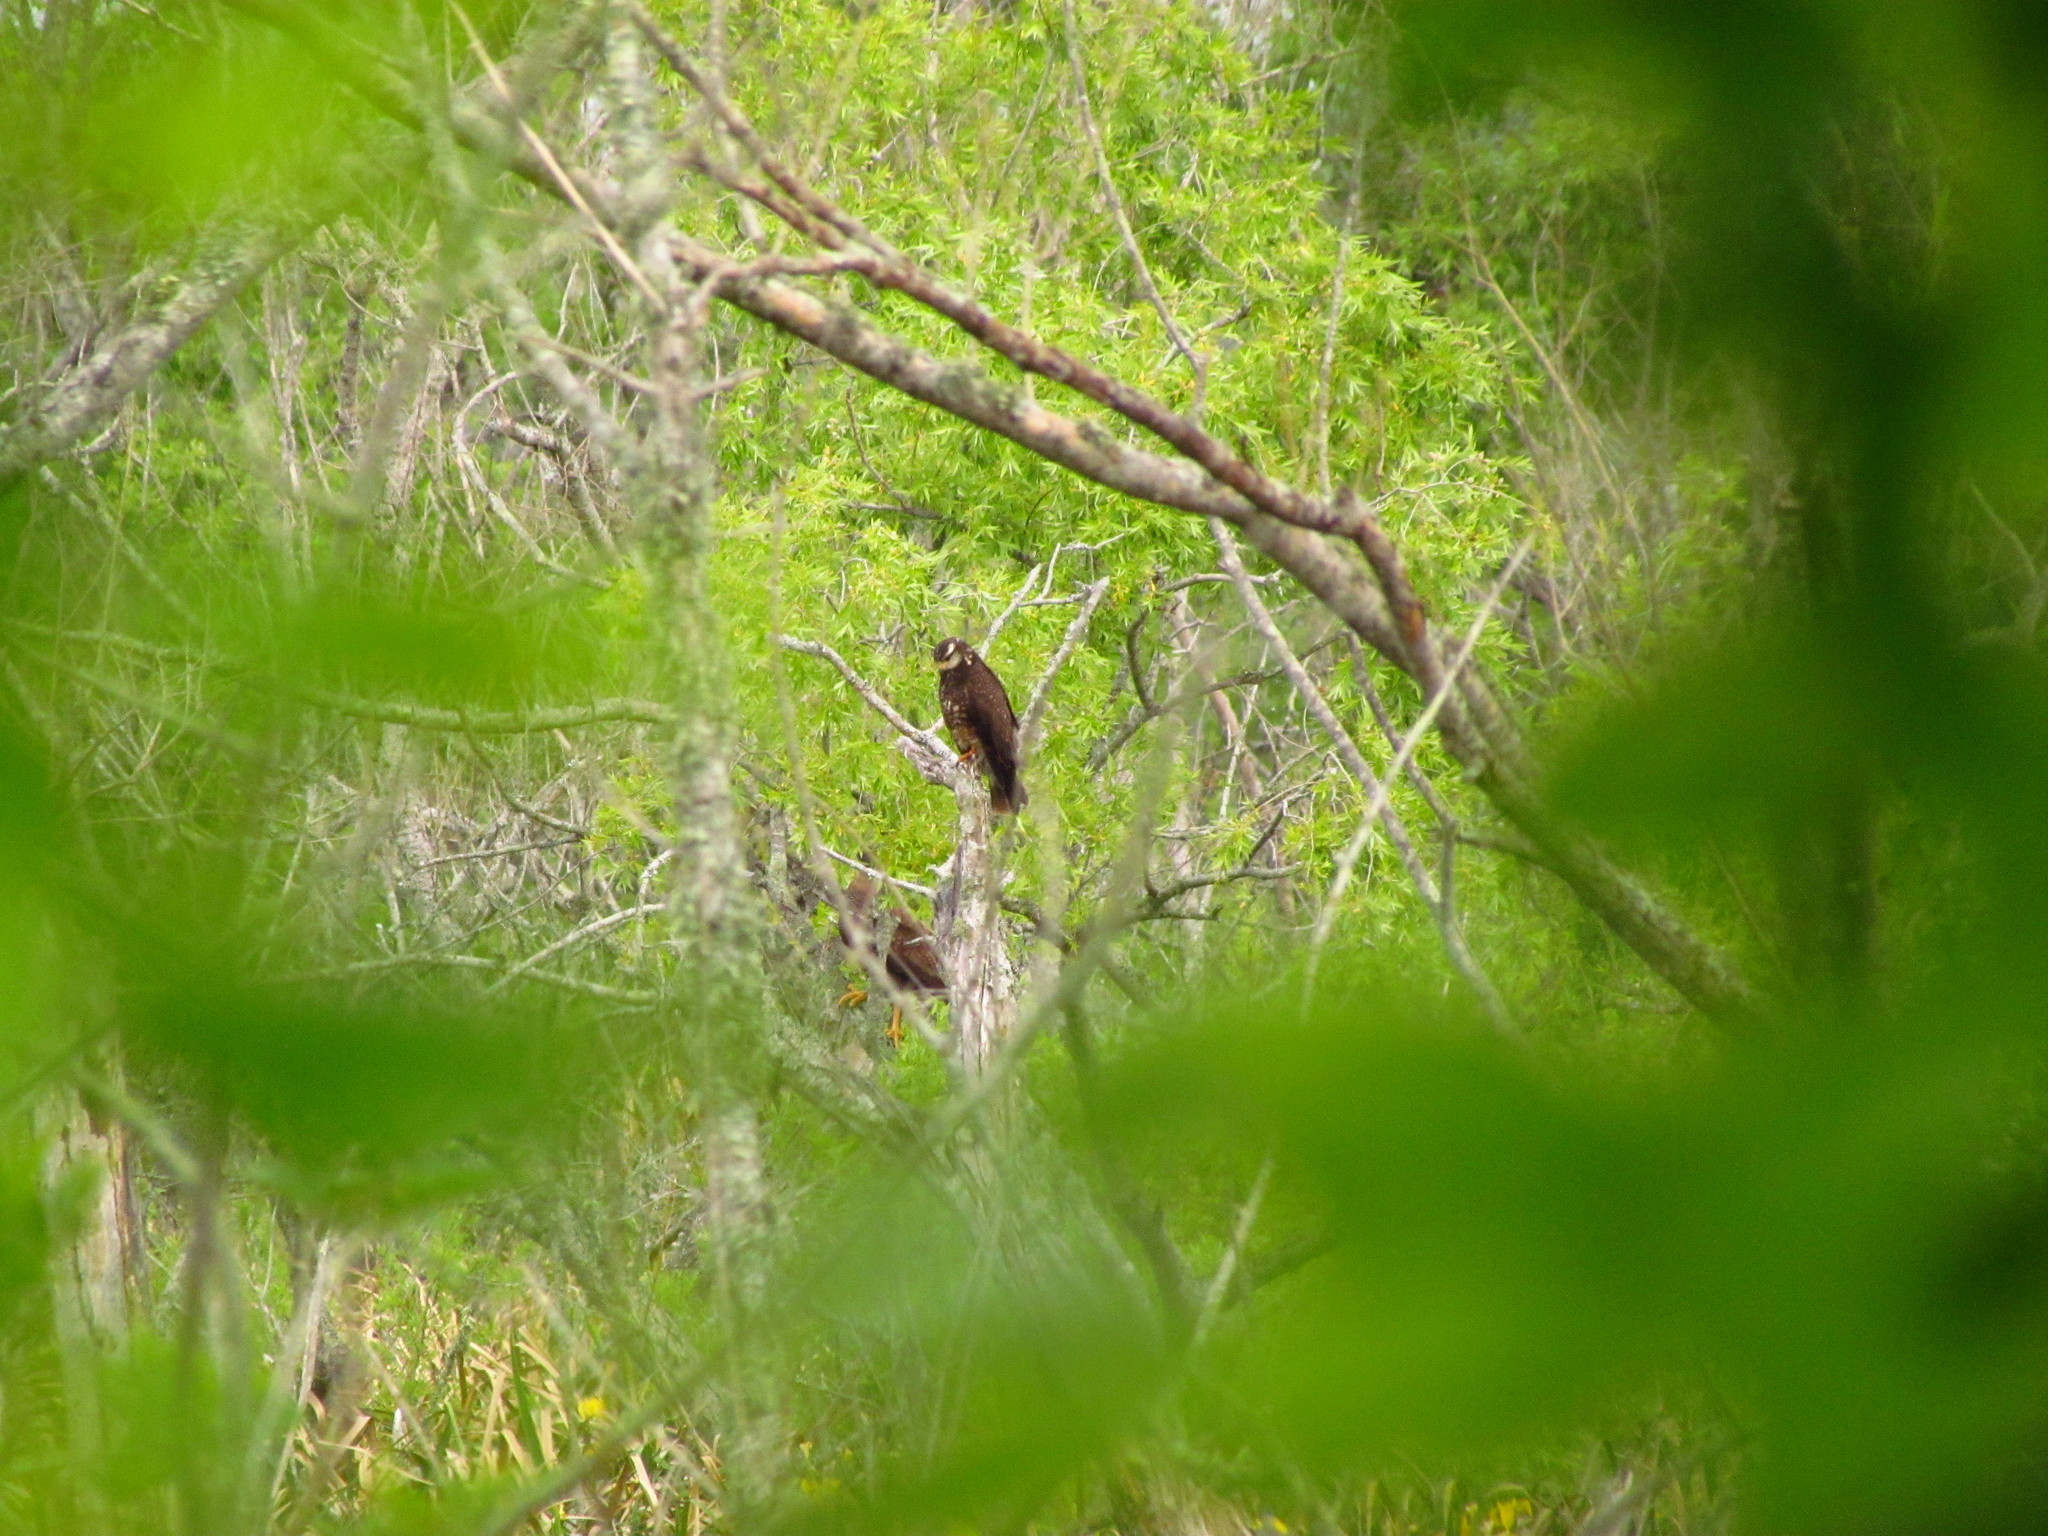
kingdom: Animalia
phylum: Chordata
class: Aves
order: Accipitriformes
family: Accipitridae
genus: Rostrhamus
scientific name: Rostrhamus sociabilis
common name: Snail kite
